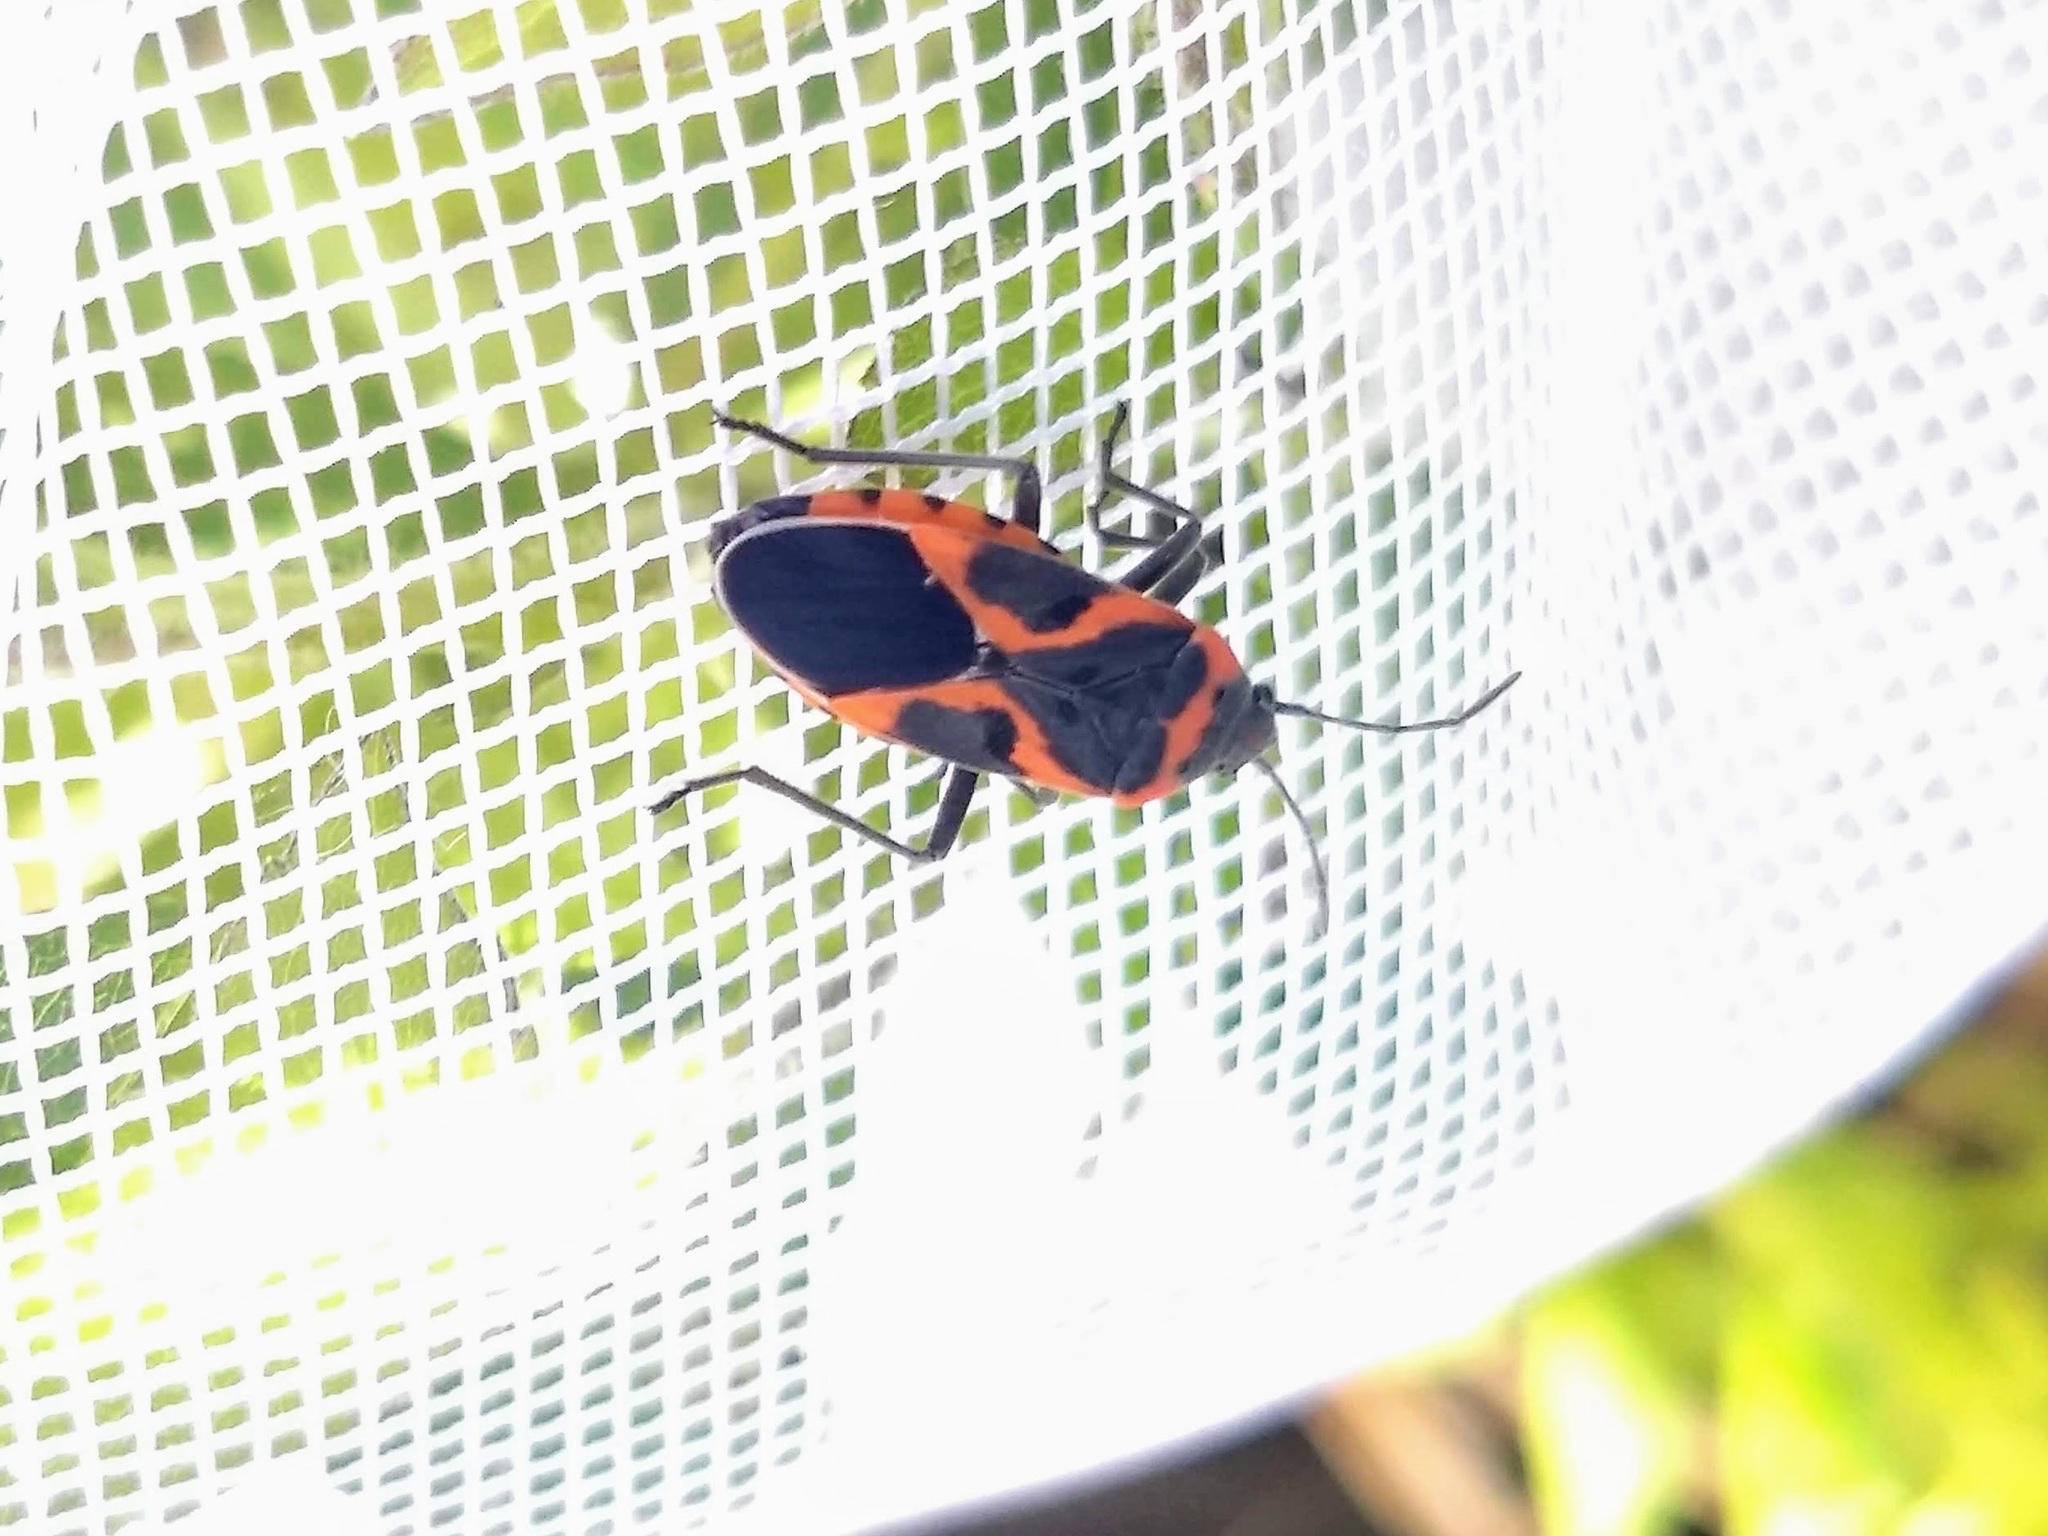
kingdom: Animalia
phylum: Arthropoda
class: Insecta
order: Hemiptera
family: Lygaeidae
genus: Lygaeus
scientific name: Lygaeus kalmii
